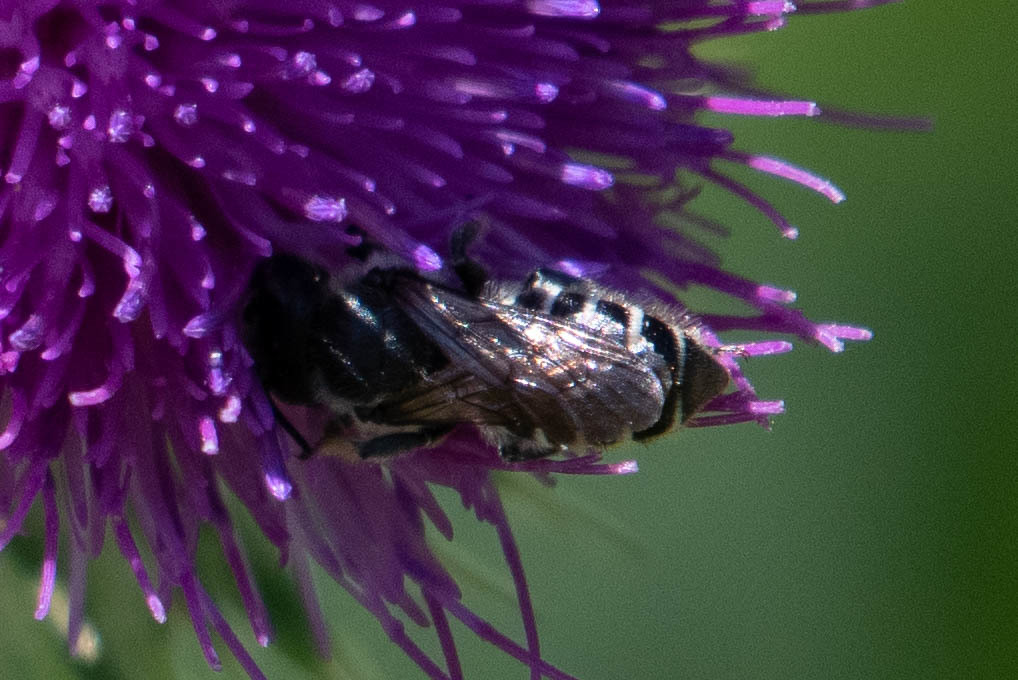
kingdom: Animalia
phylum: Arthropoda
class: Insecta
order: Hymenoptera
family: Megachilidae
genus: Megachile
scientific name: Megachile montivaga
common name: Silver-tailed petalcutter bee
